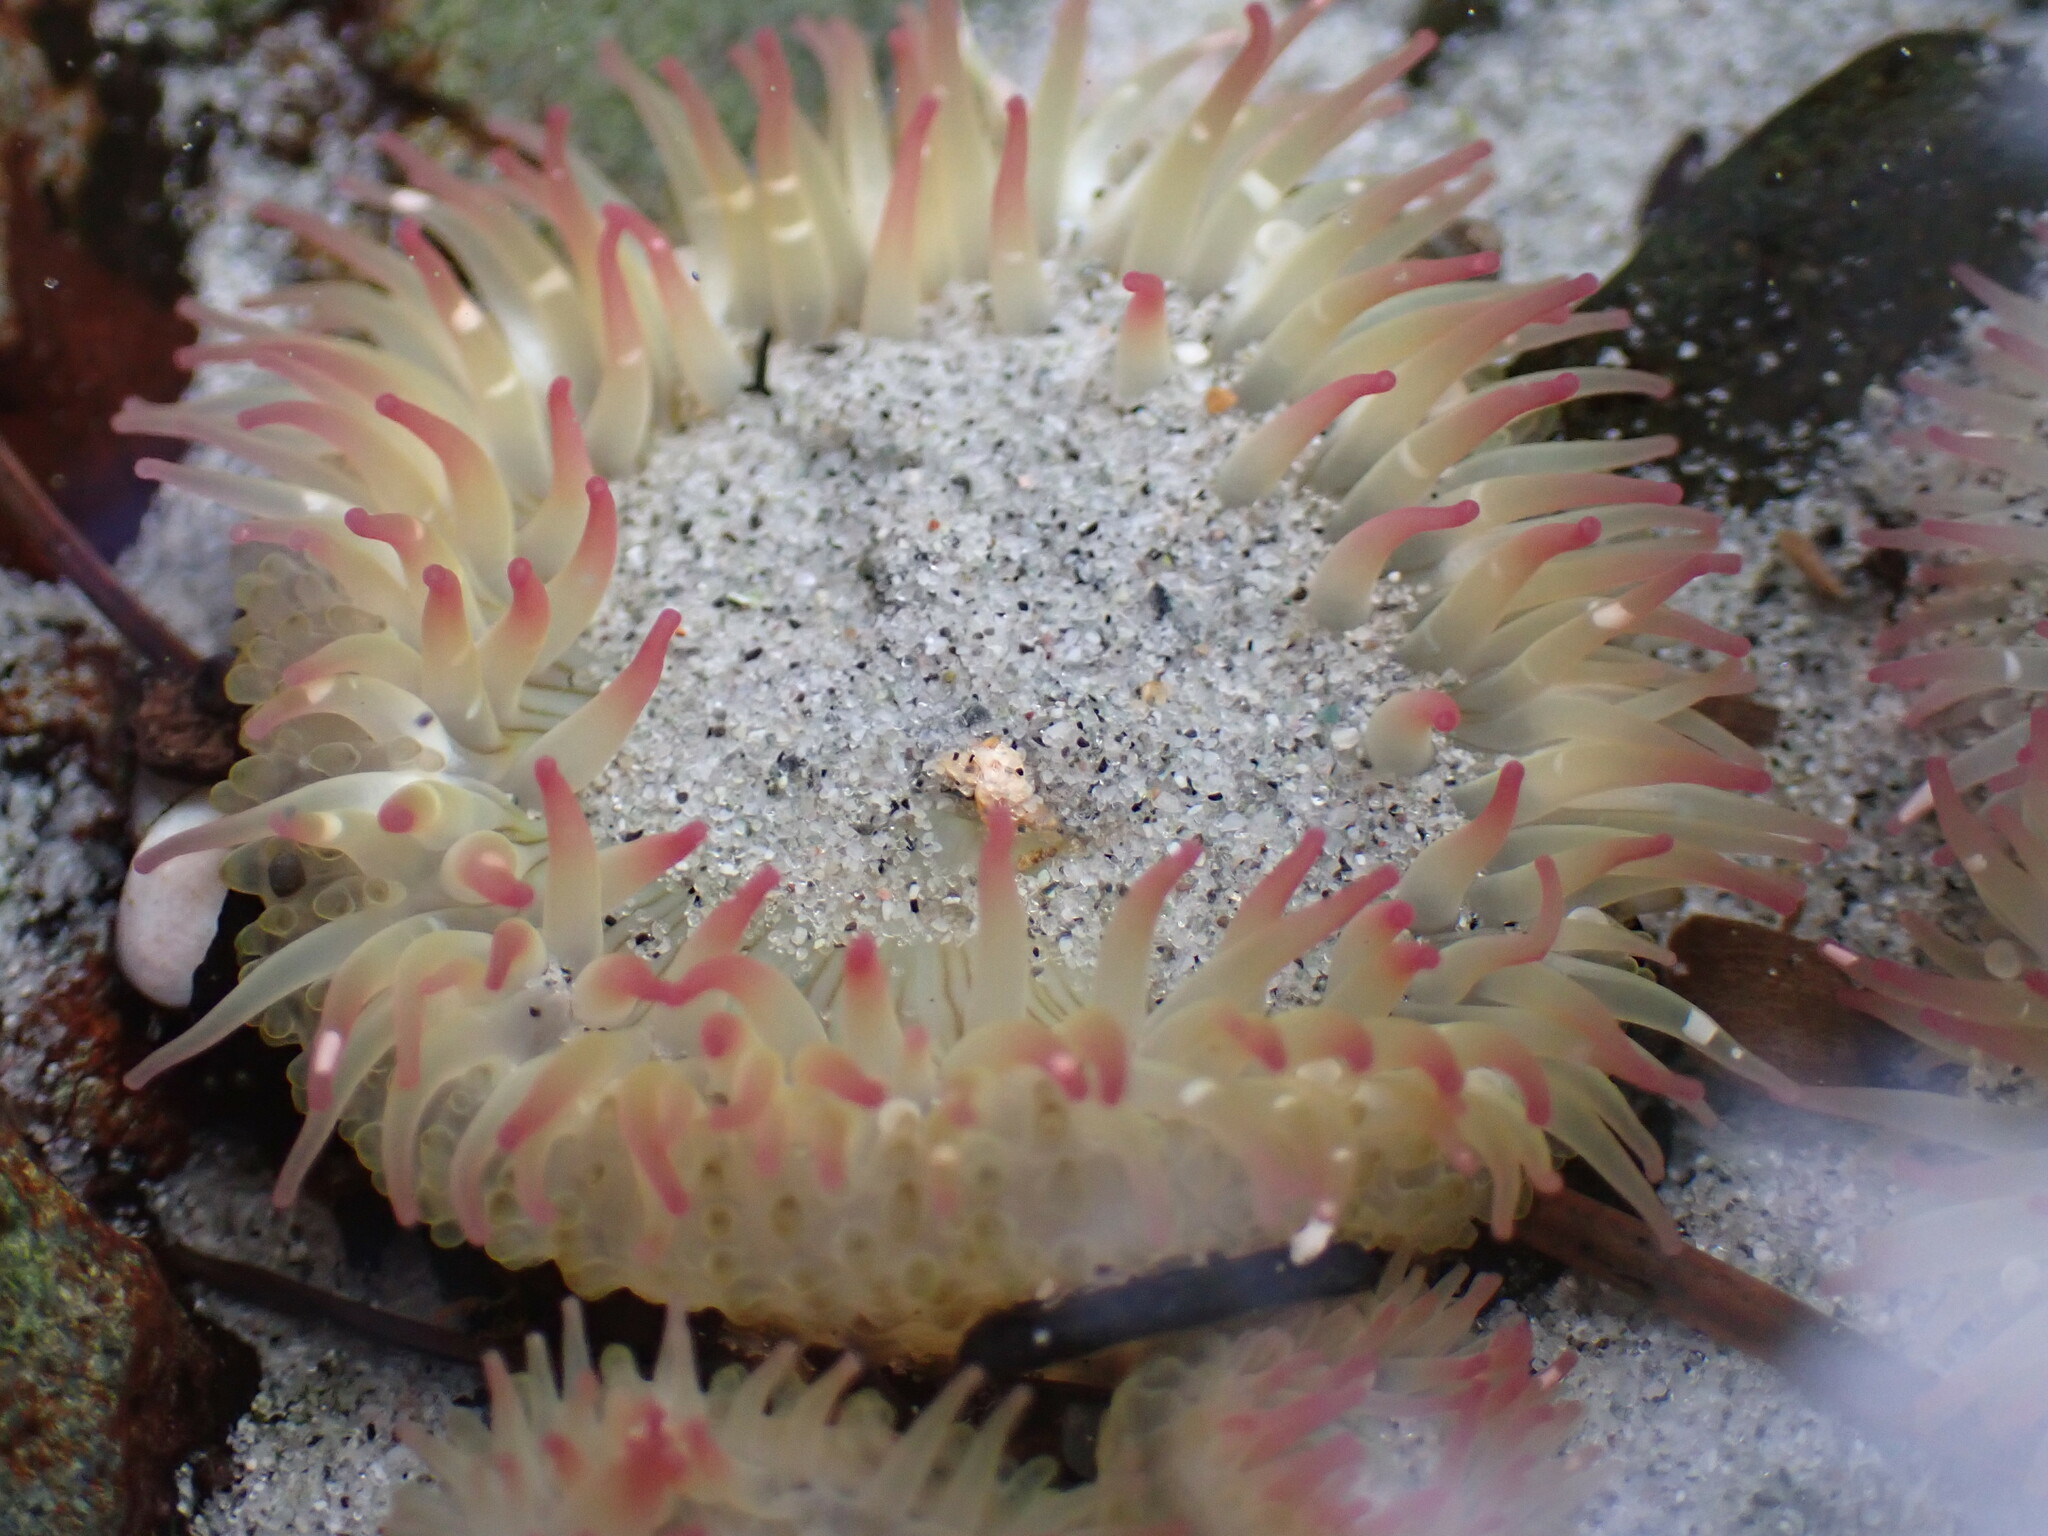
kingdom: Animalia
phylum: Cnidaria
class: Anthozoa
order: Actiniaria
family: Actiniidae
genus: Anthopleura
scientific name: Anthopleura elegantissima
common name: Clonal anemone
